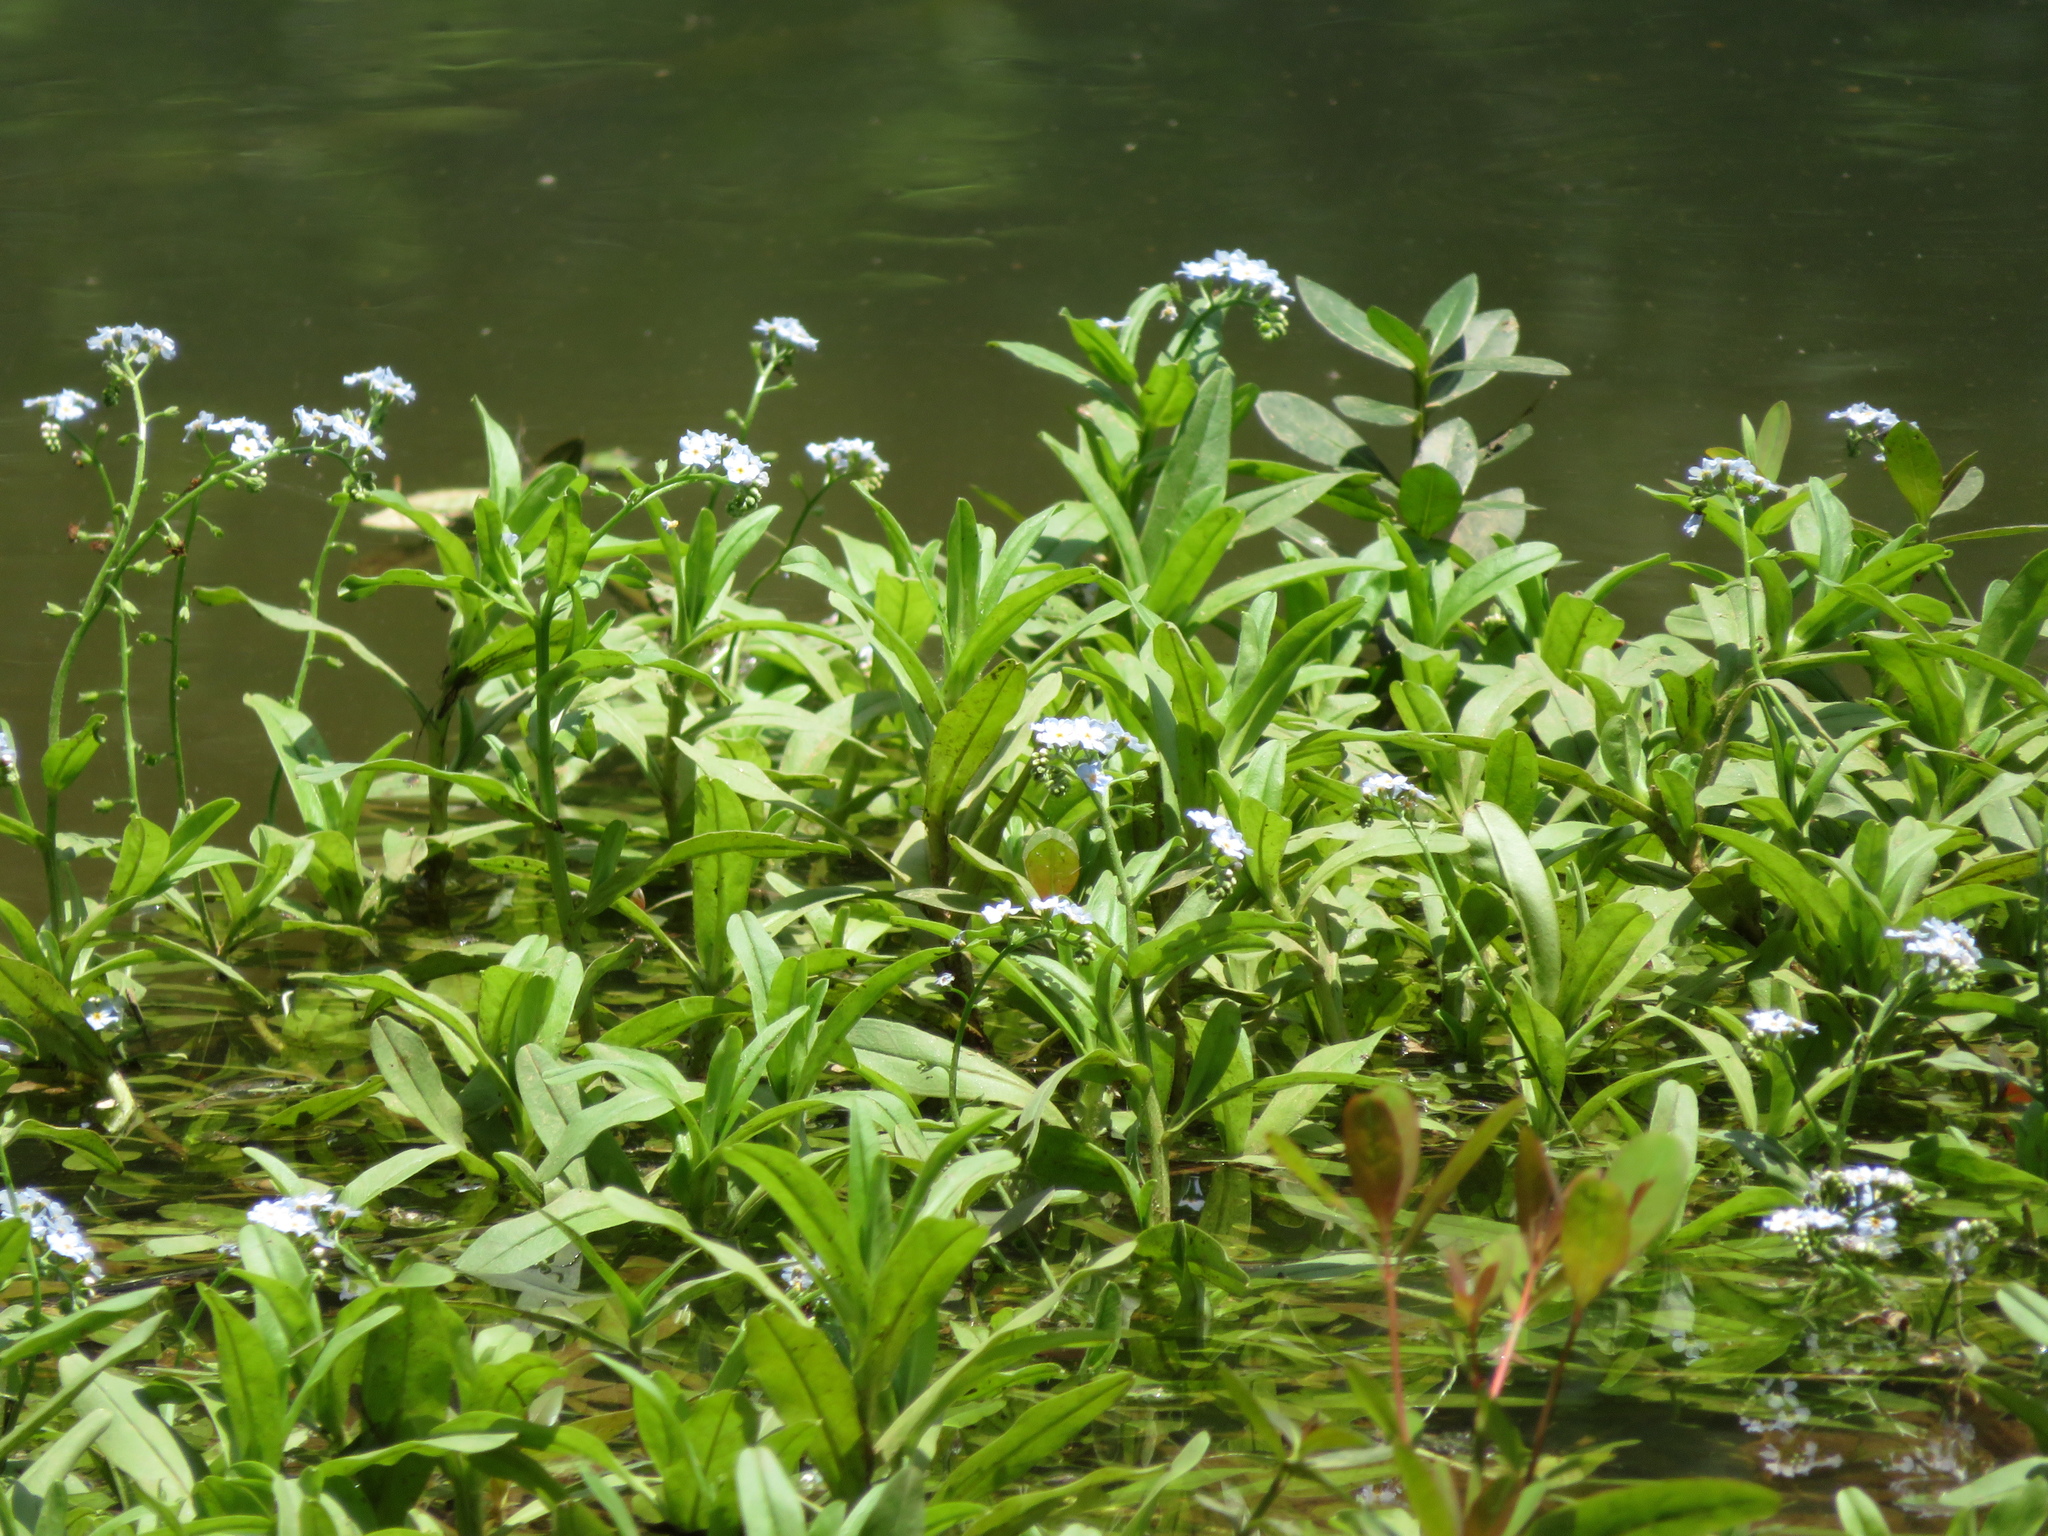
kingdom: Plantae
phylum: Tracheophyta
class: Magnoliopsida
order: Boraginales
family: Boraginaceae
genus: Myosotis
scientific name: Myosotis scorpioides
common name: Water forget-me-not
